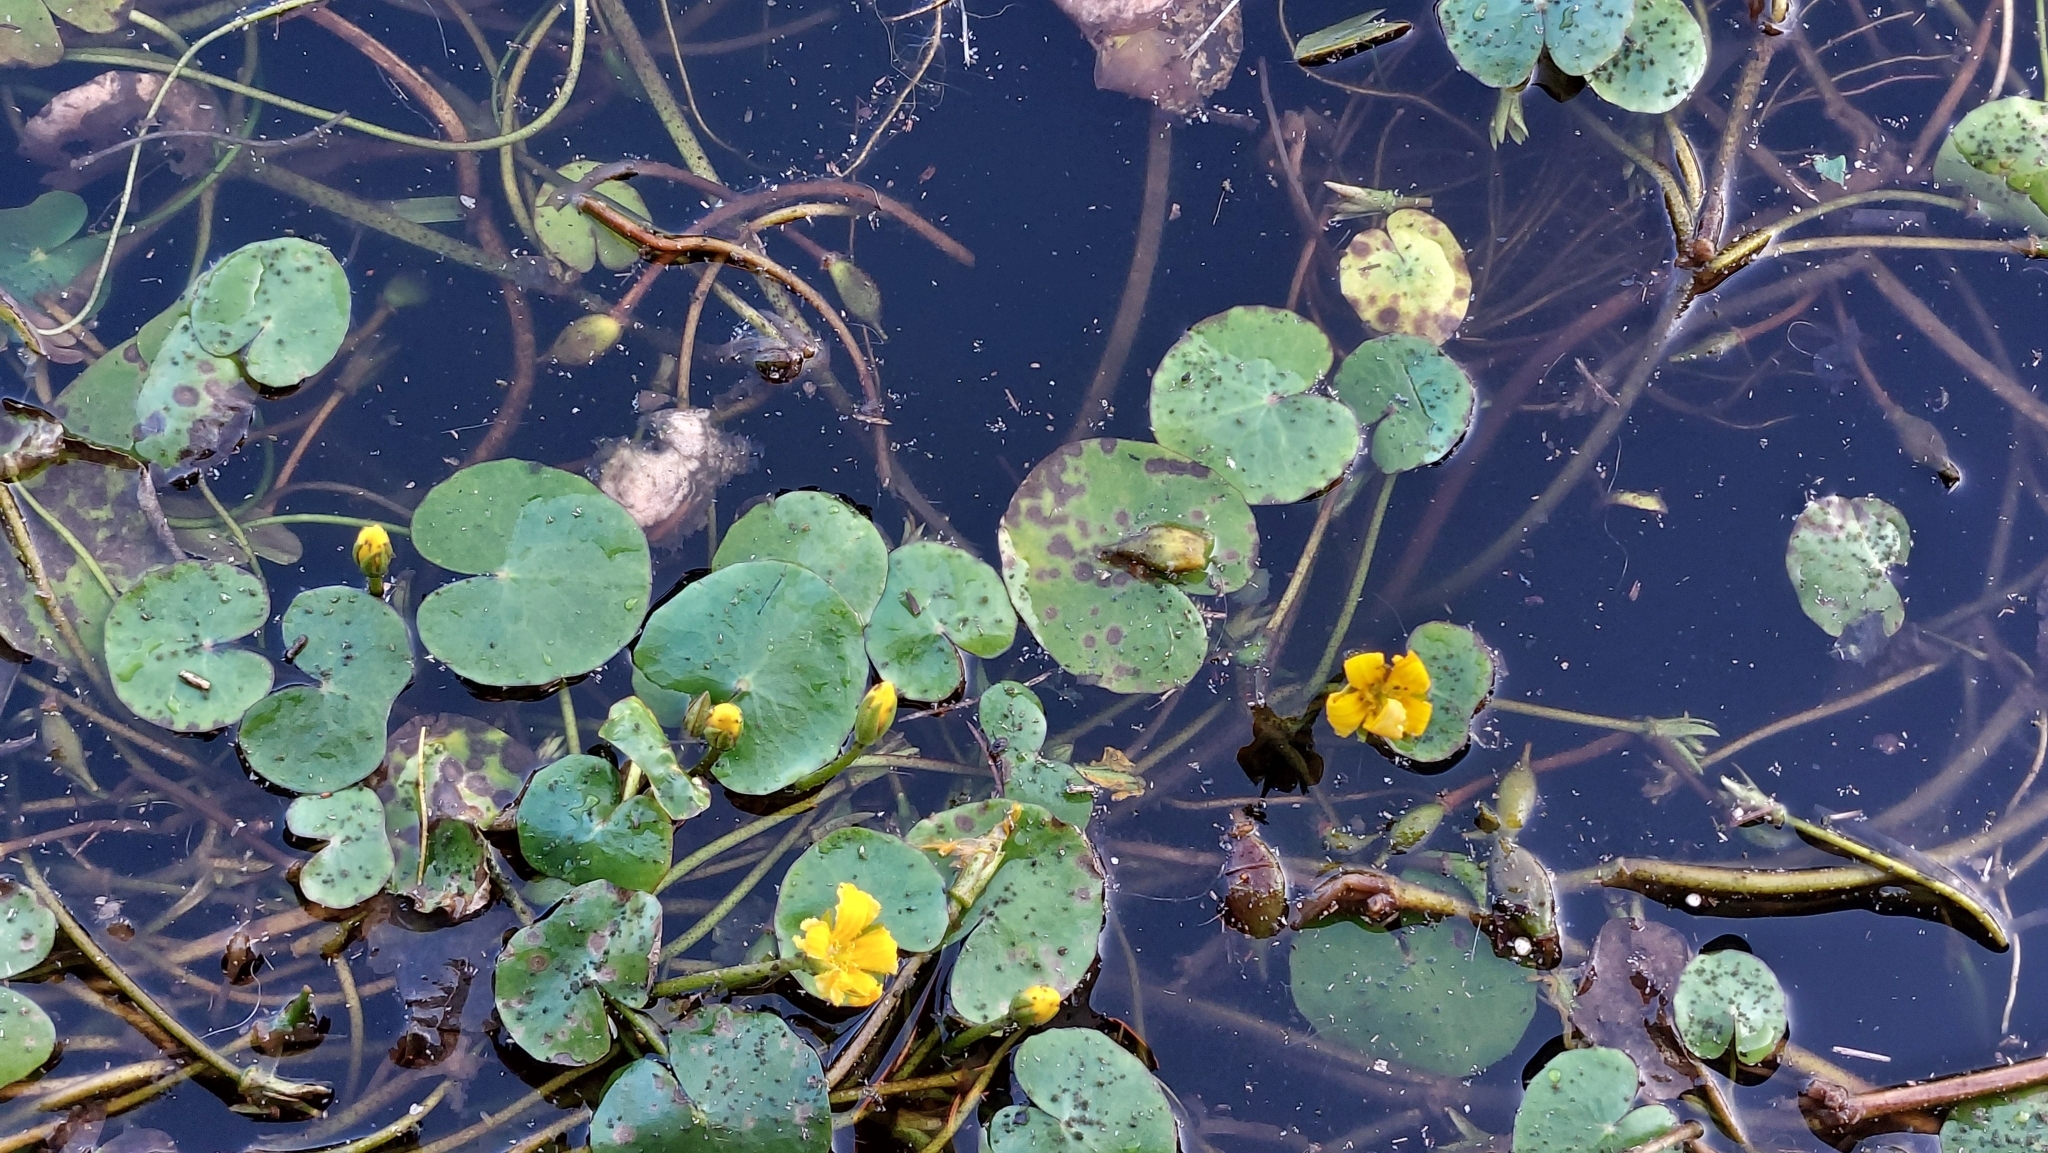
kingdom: Plantae
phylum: Tracheophyta
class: Magnoliopsida
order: Asterales
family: Menyanthaceae
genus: Nymphoides
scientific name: Nymphoides peltata
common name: Fringed water-lily
